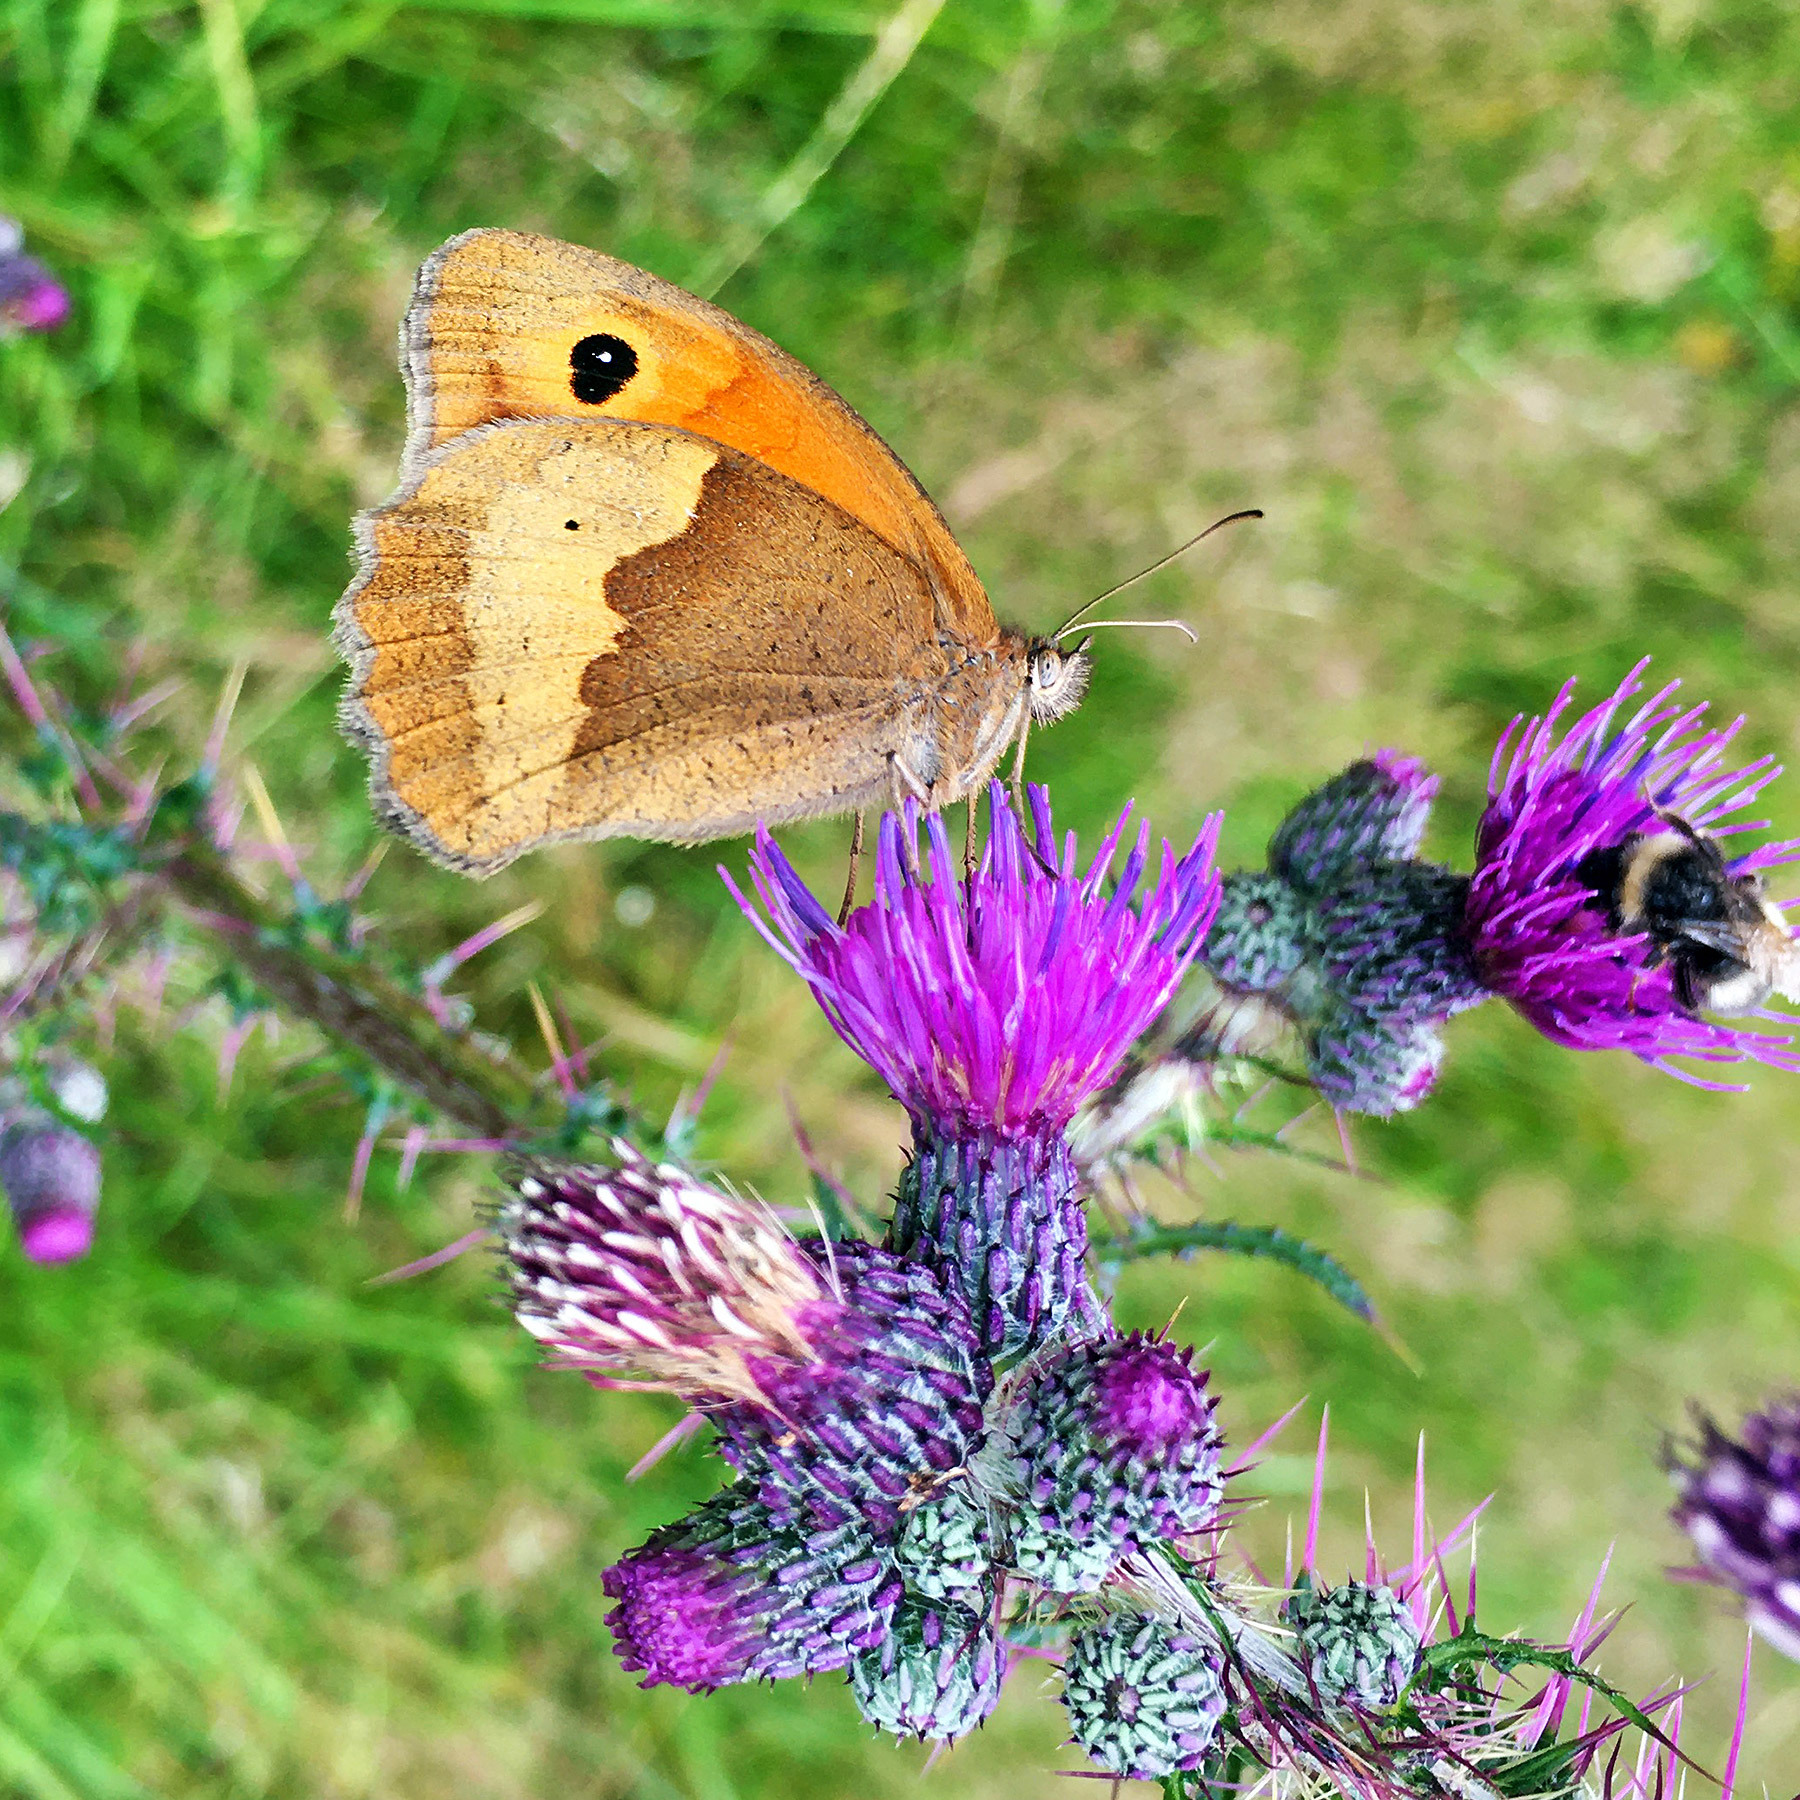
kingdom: Animalia
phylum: Arthropoda
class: Insecta
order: Lepidoptera
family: Nymphalidae
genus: Maniola
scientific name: Maniola jurtina
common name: Meadow brown
